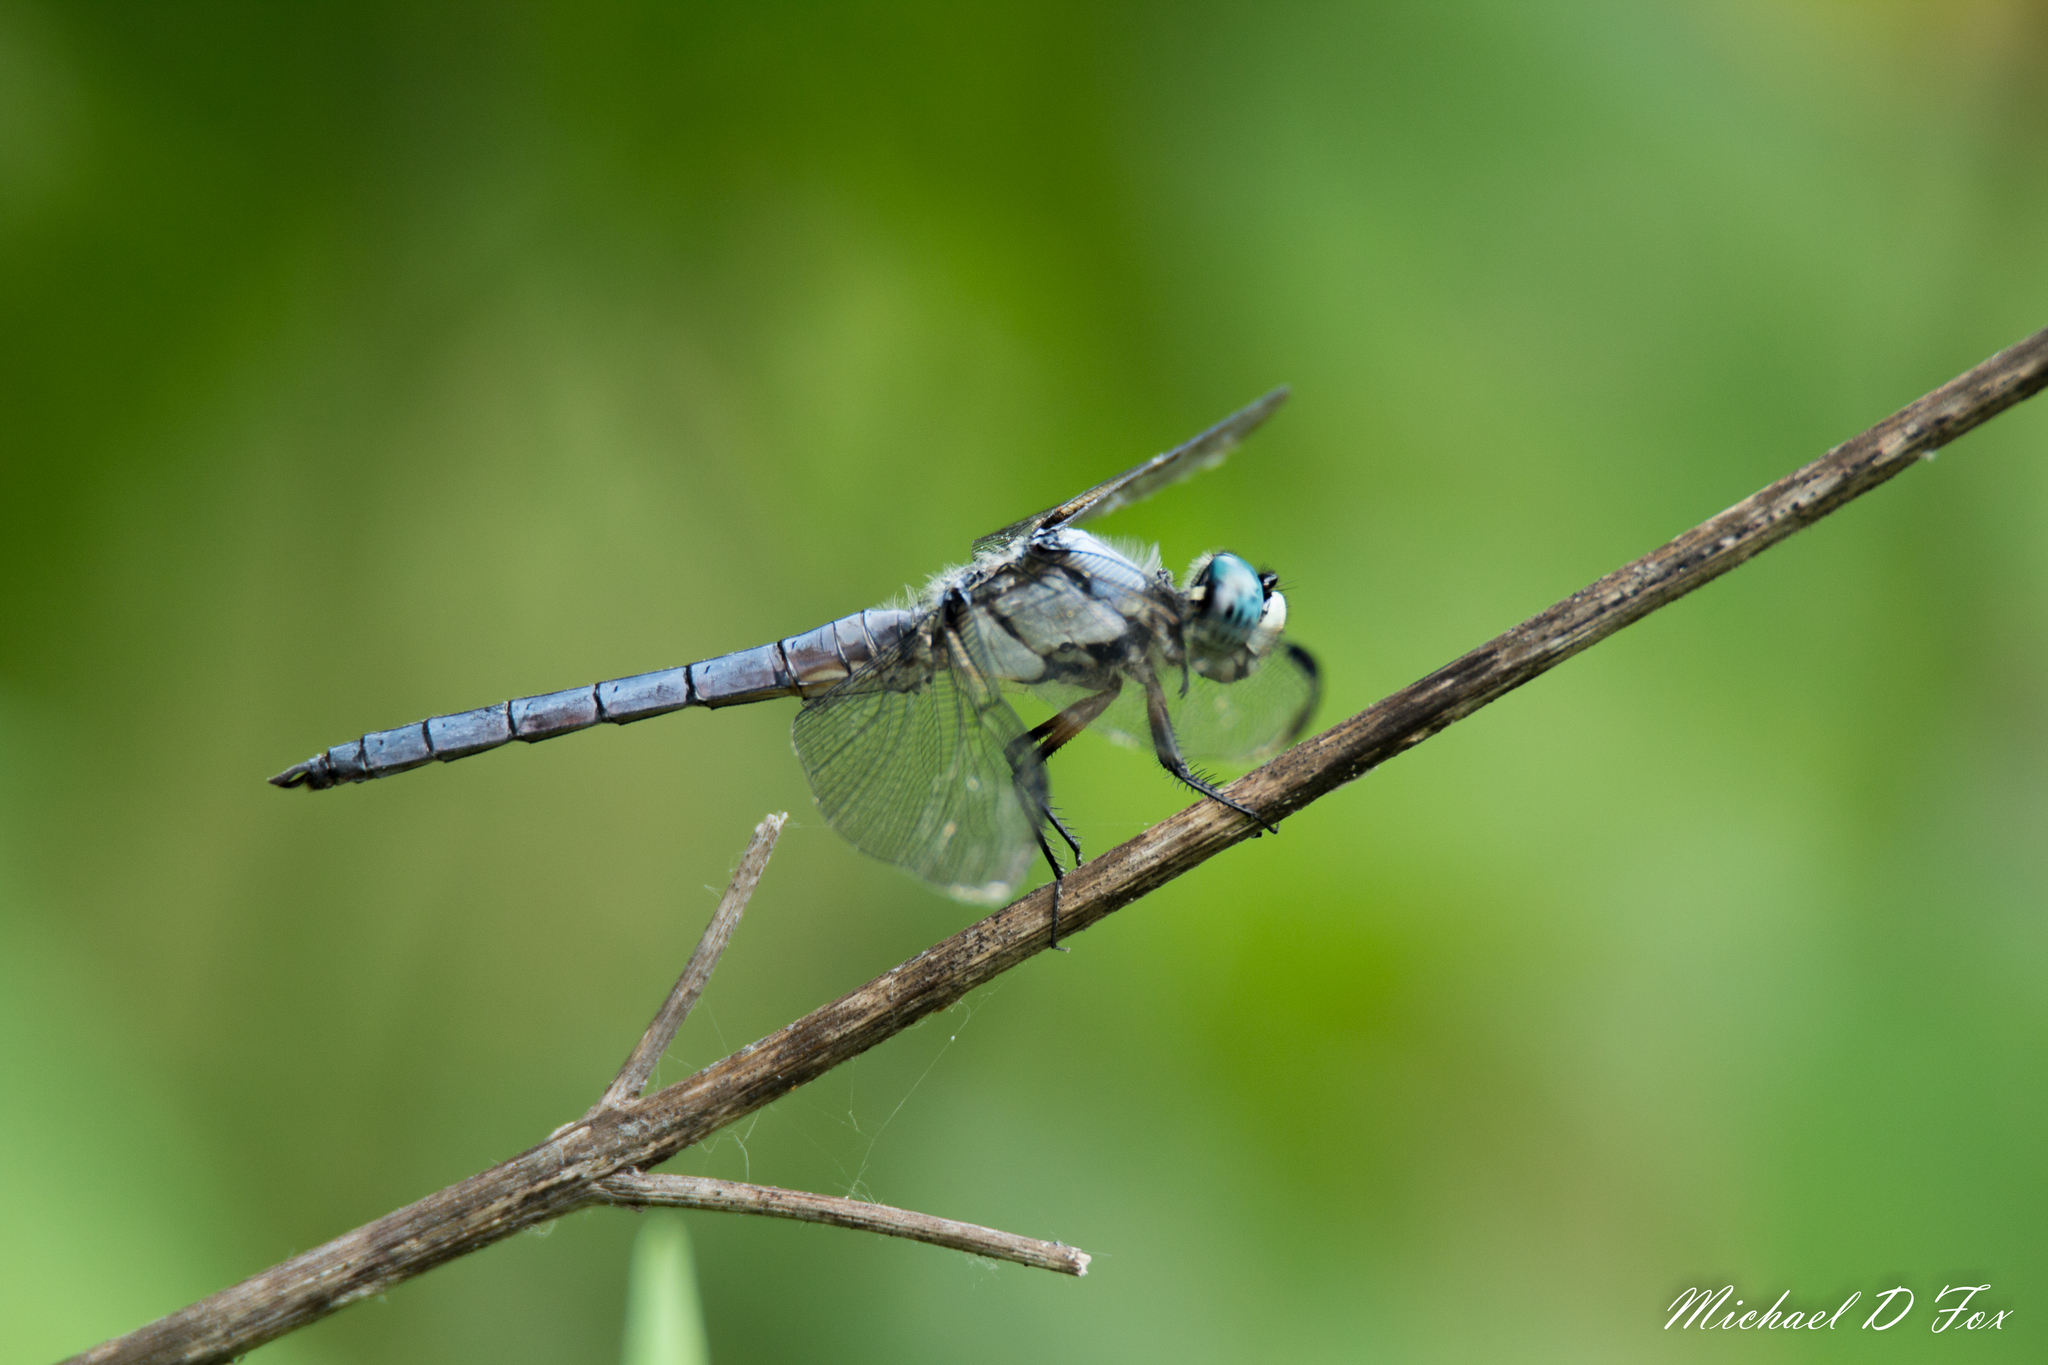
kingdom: Animalia
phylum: Arthropoda
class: Insecta
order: Odonata
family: Libellulidae
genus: Libellula
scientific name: Libellula vibrans
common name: Great blue skimmer
